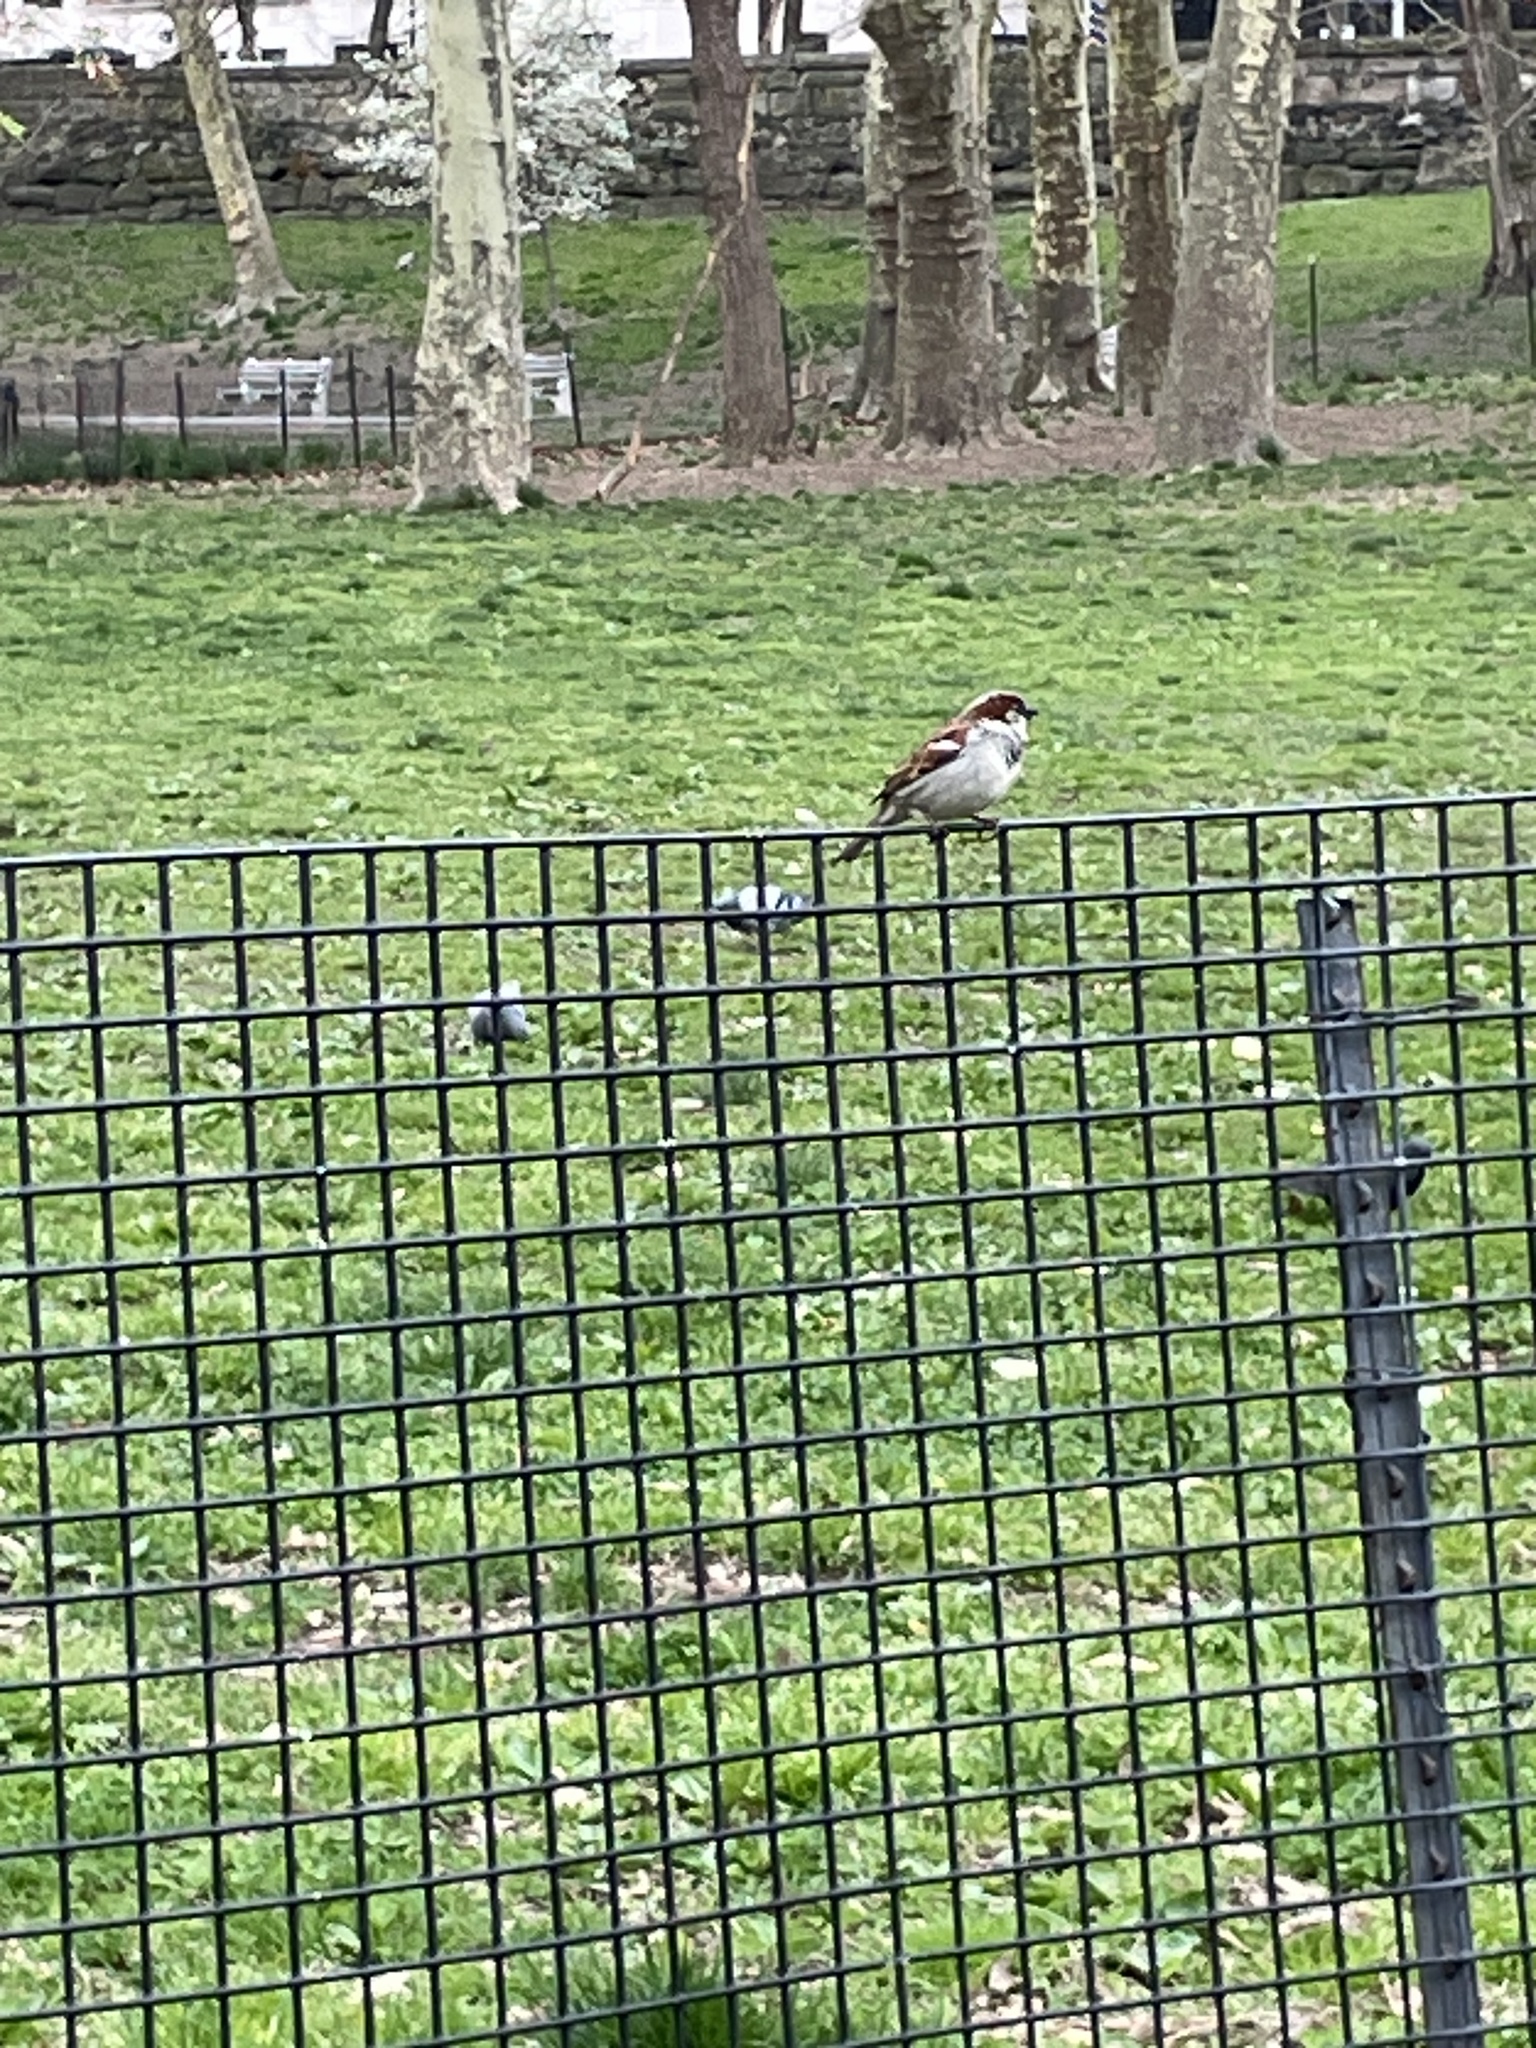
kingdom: Animalia
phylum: Chordata
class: Aves
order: Passeriformes
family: Passeridae
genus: Passer
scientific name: Passer domesticus
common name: House sparrow
